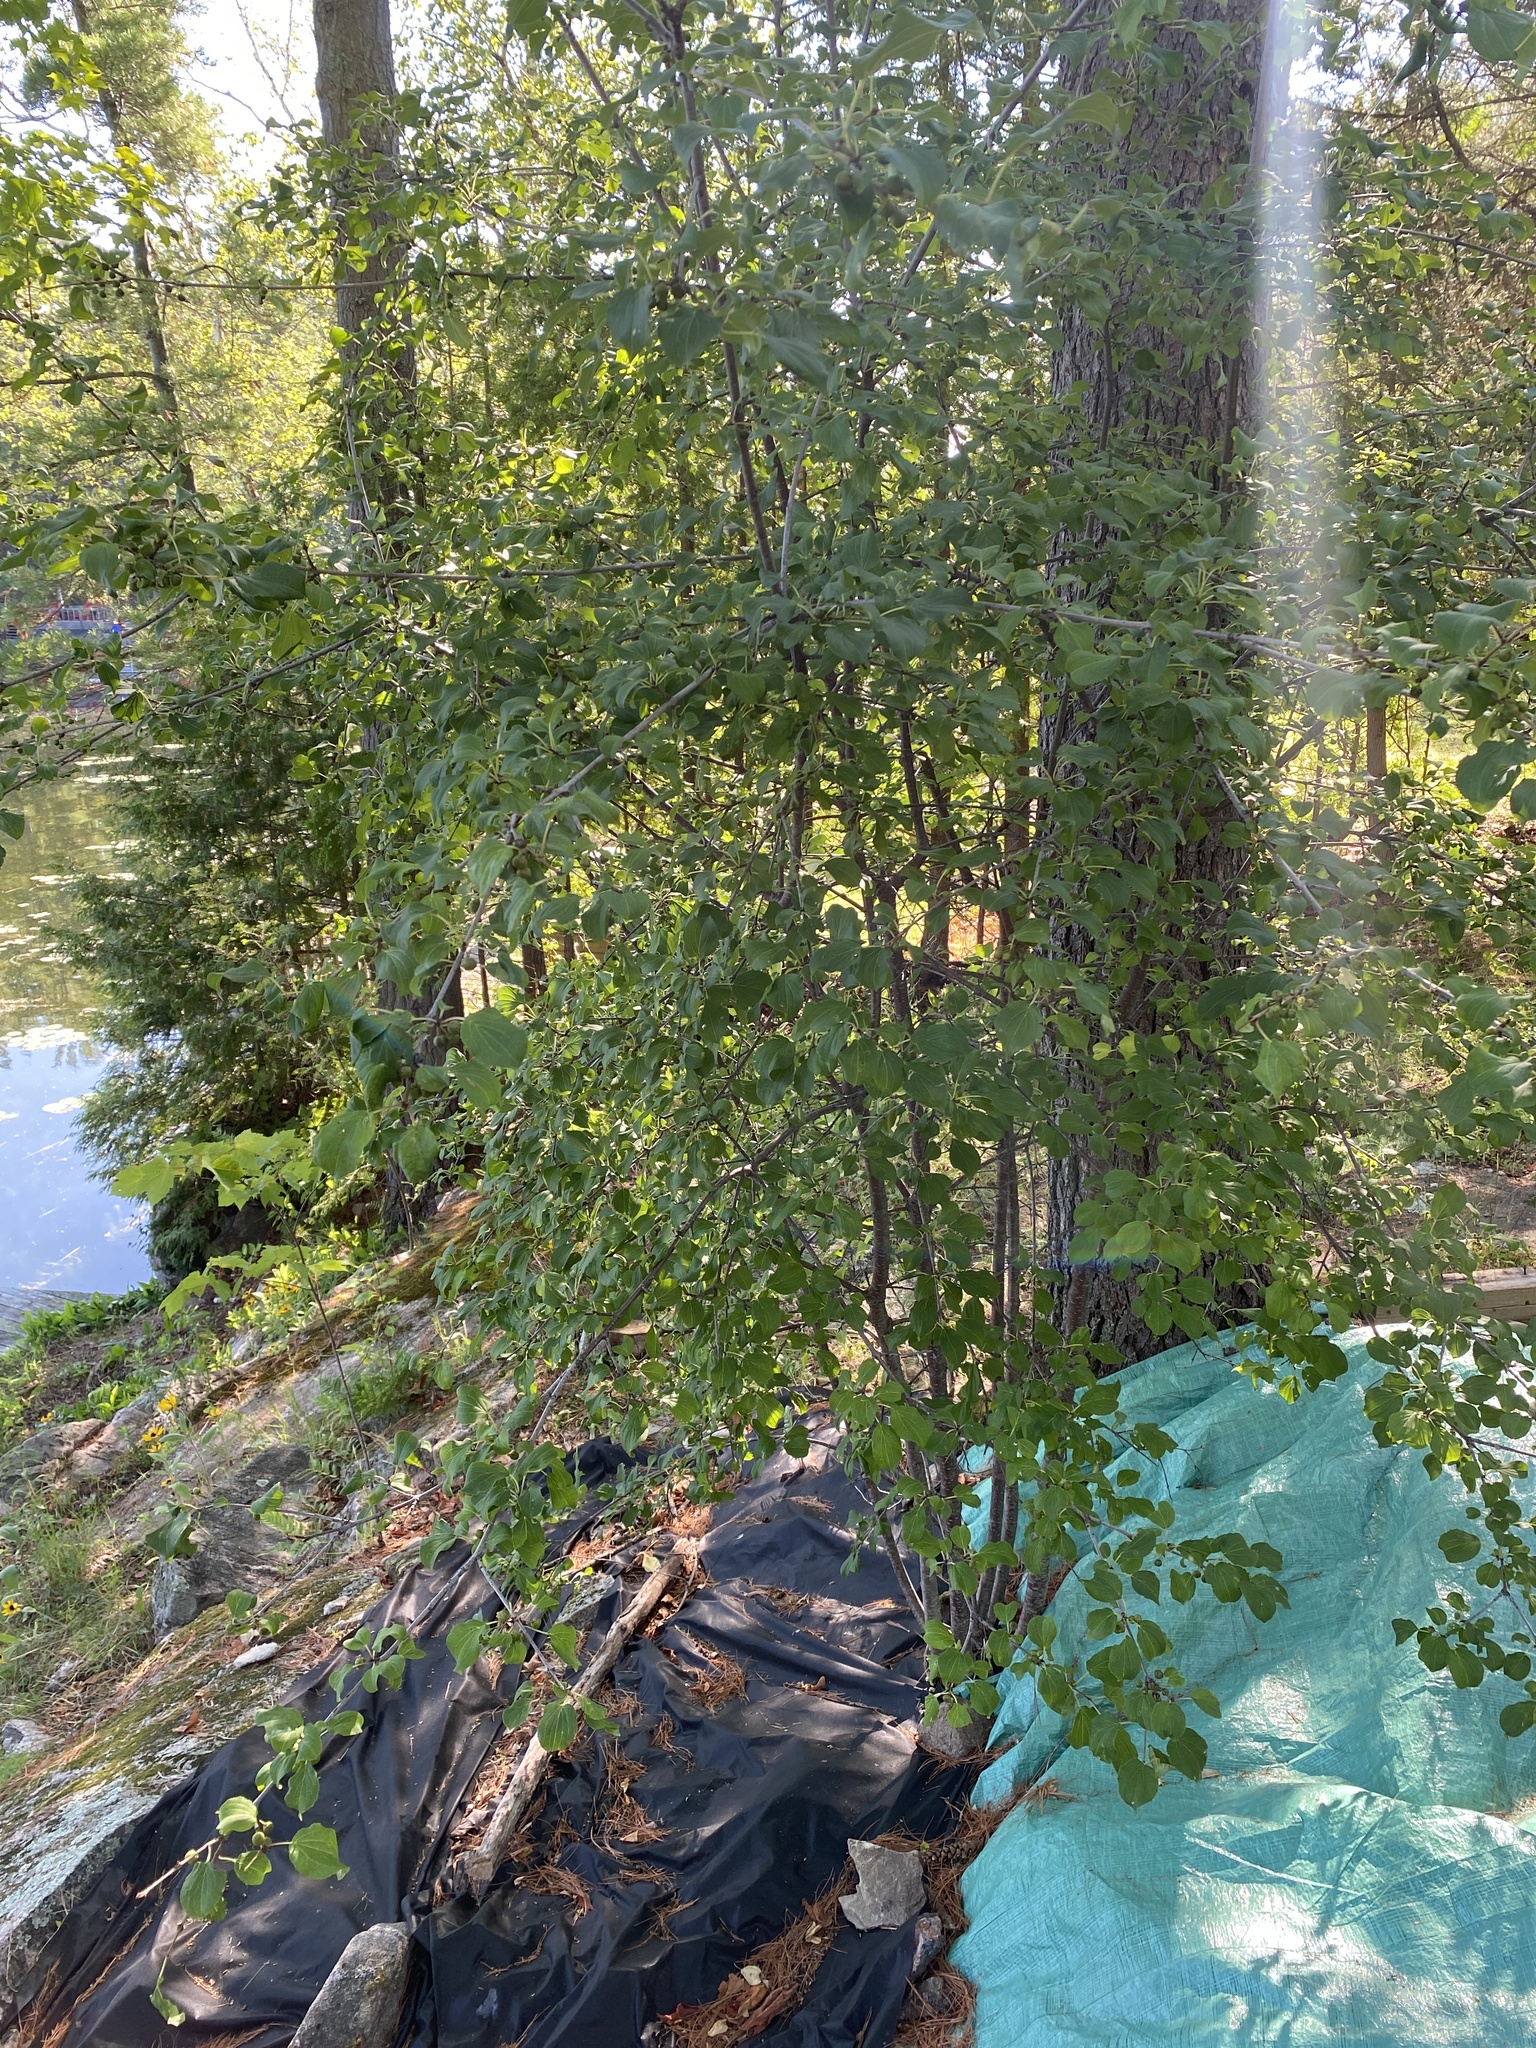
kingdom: Plantae
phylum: Tracheophyta
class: Magnoliopsida
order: Rosales
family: Rhamnaceae
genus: Rhamnus
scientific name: Rhamnus cathartica
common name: Common buckthorn
